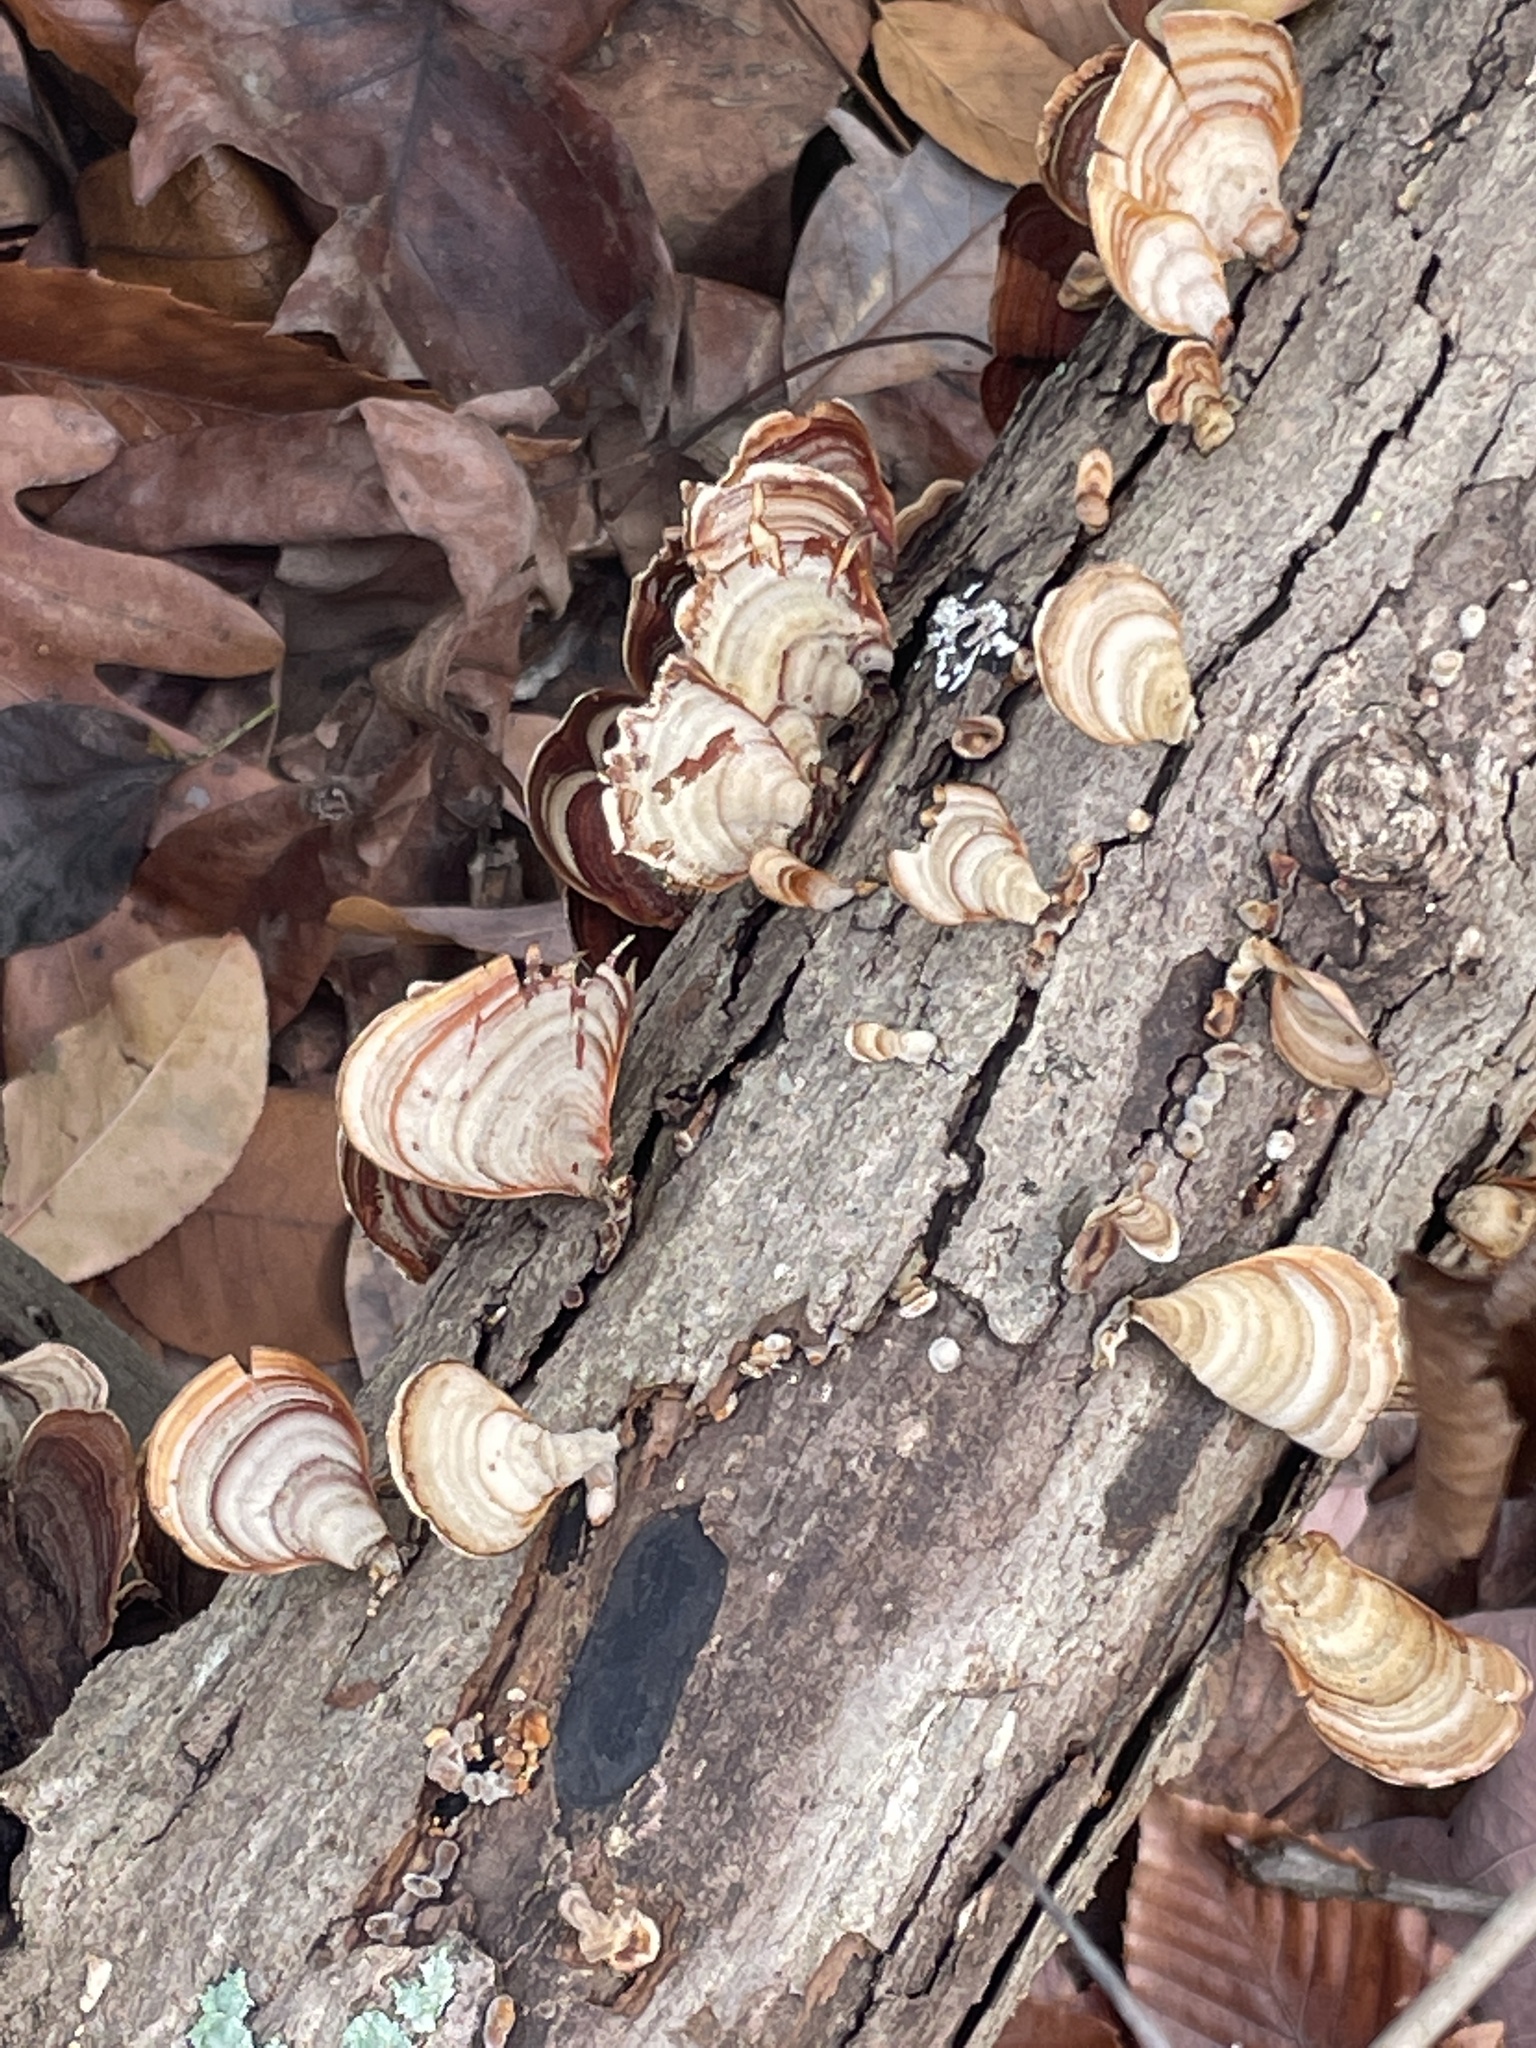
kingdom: Fungi
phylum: Basidiomycota
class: Agaricomycetes
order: Russulales
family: Stereaceae
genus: Stereum
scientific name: Stereum lobatum
